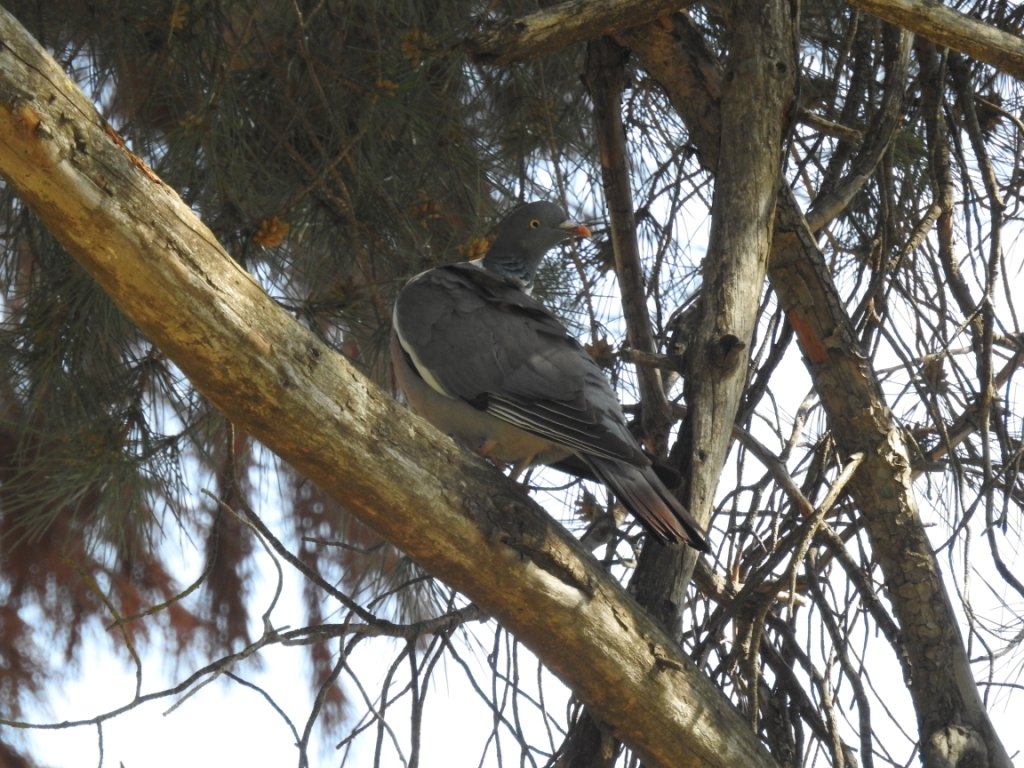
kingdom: Animalia
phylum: Chordata
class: Aves
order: Columbiformes
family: Columbidae
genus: Columba
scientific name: Columba palumbus
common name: Common wood pigeon
